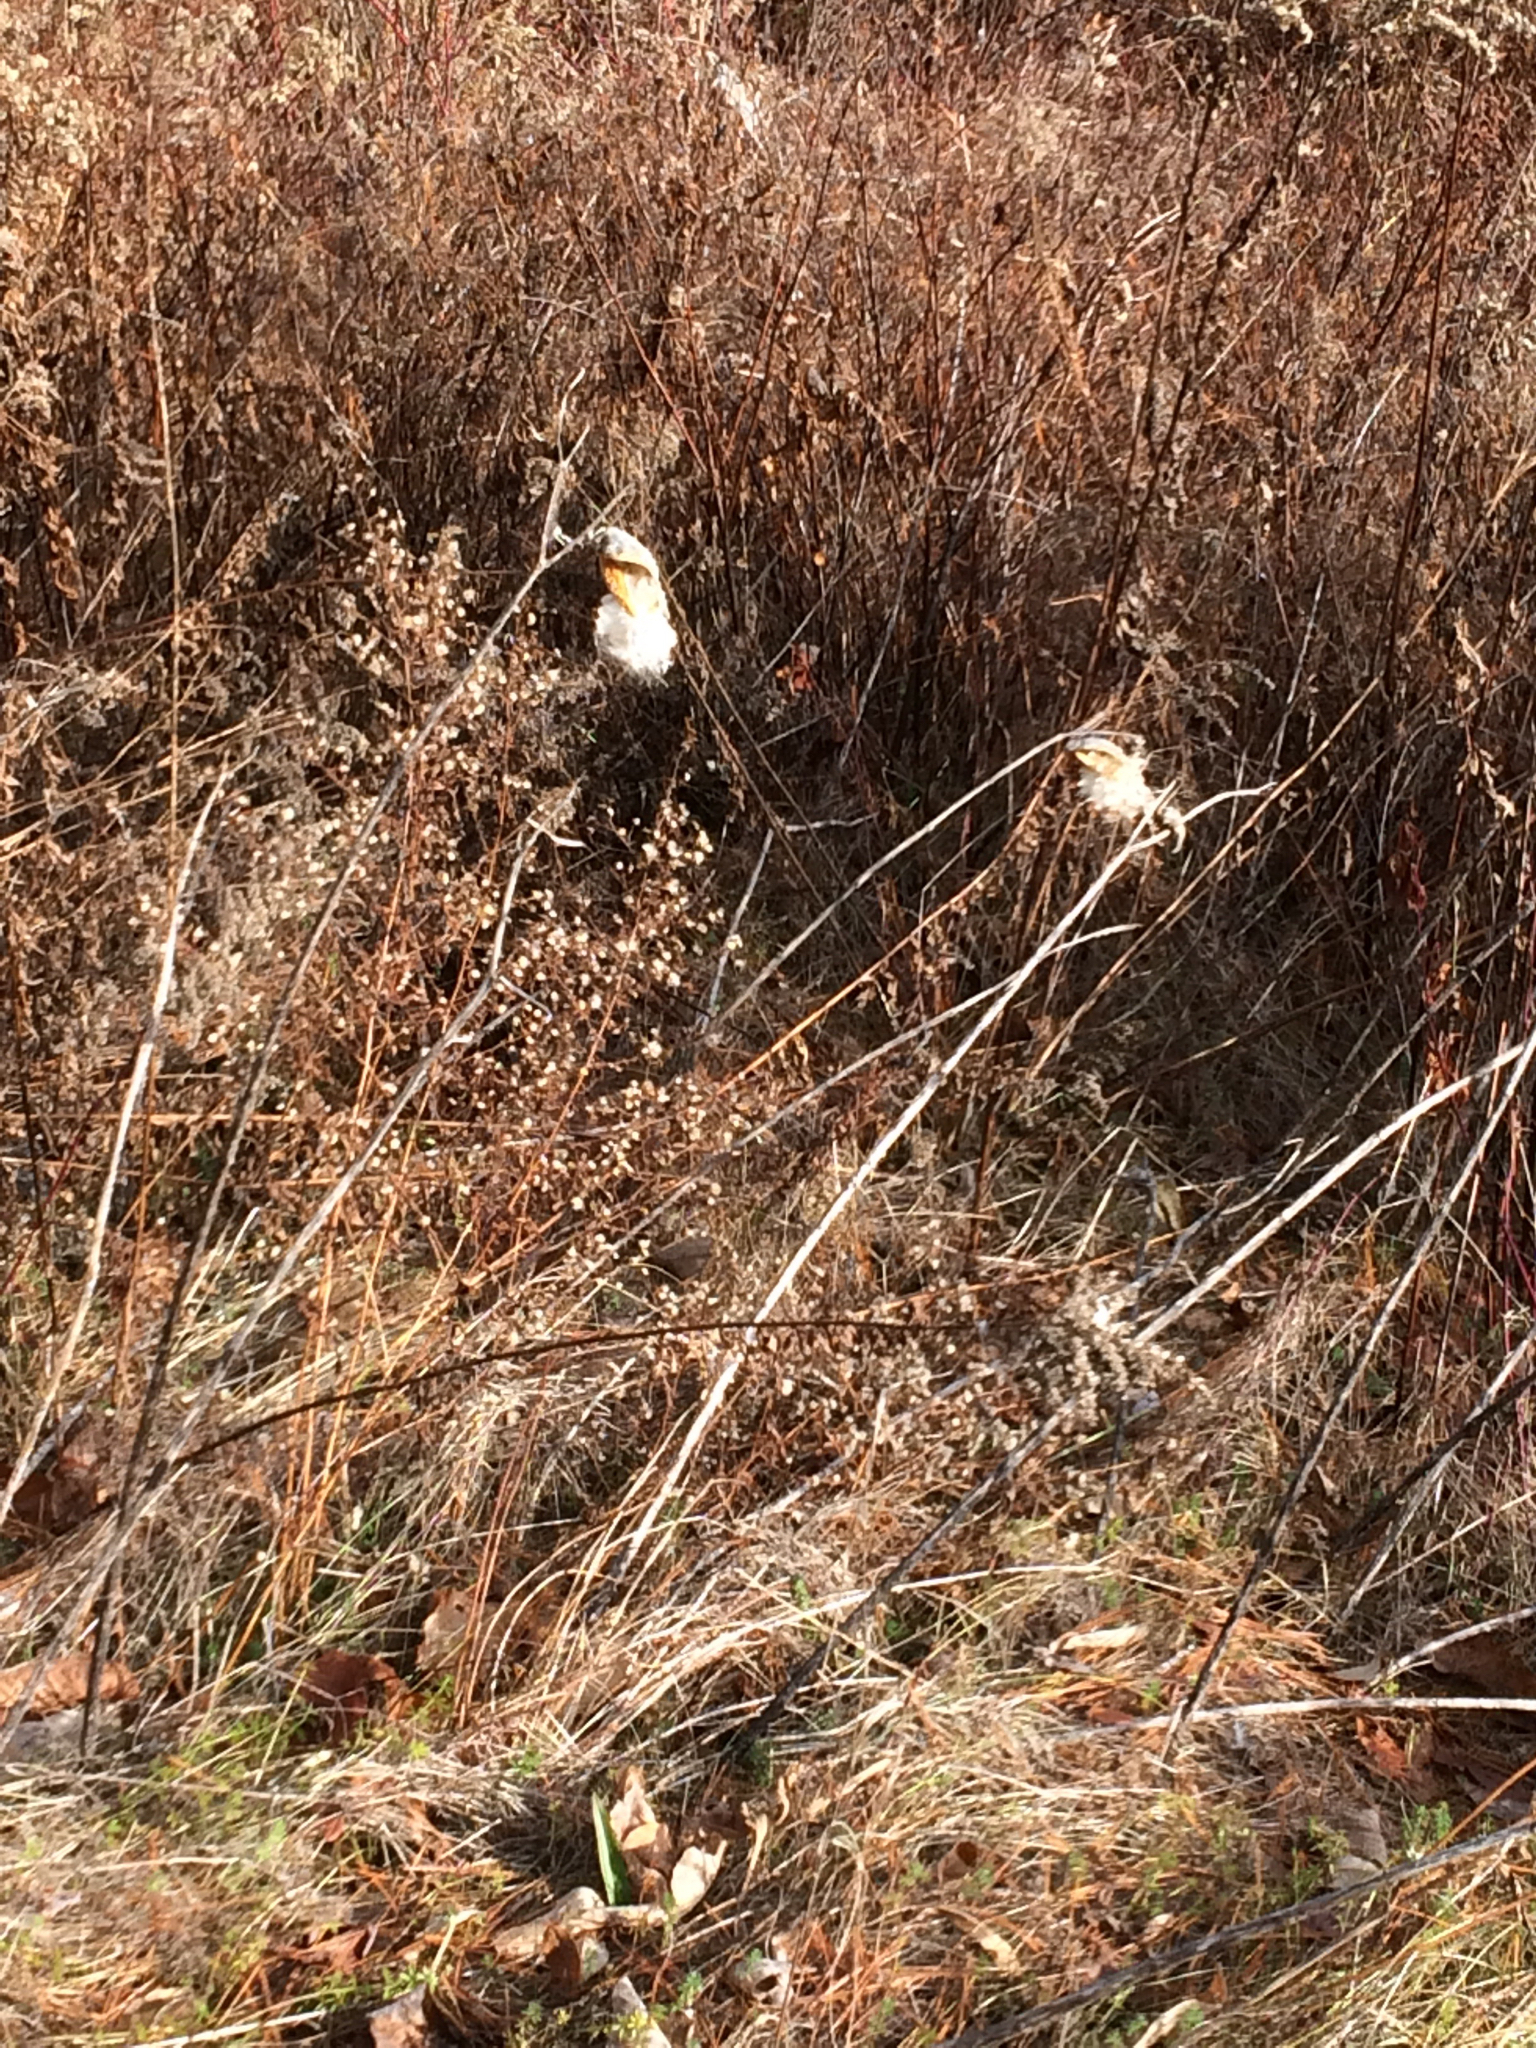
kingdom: Plantae
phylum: Tracheophyta
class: Magnoliopsida
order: Gentianales
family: Apocynaceae
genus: Asclepias
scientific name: Asclepias syriaca
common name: Common milkweed
